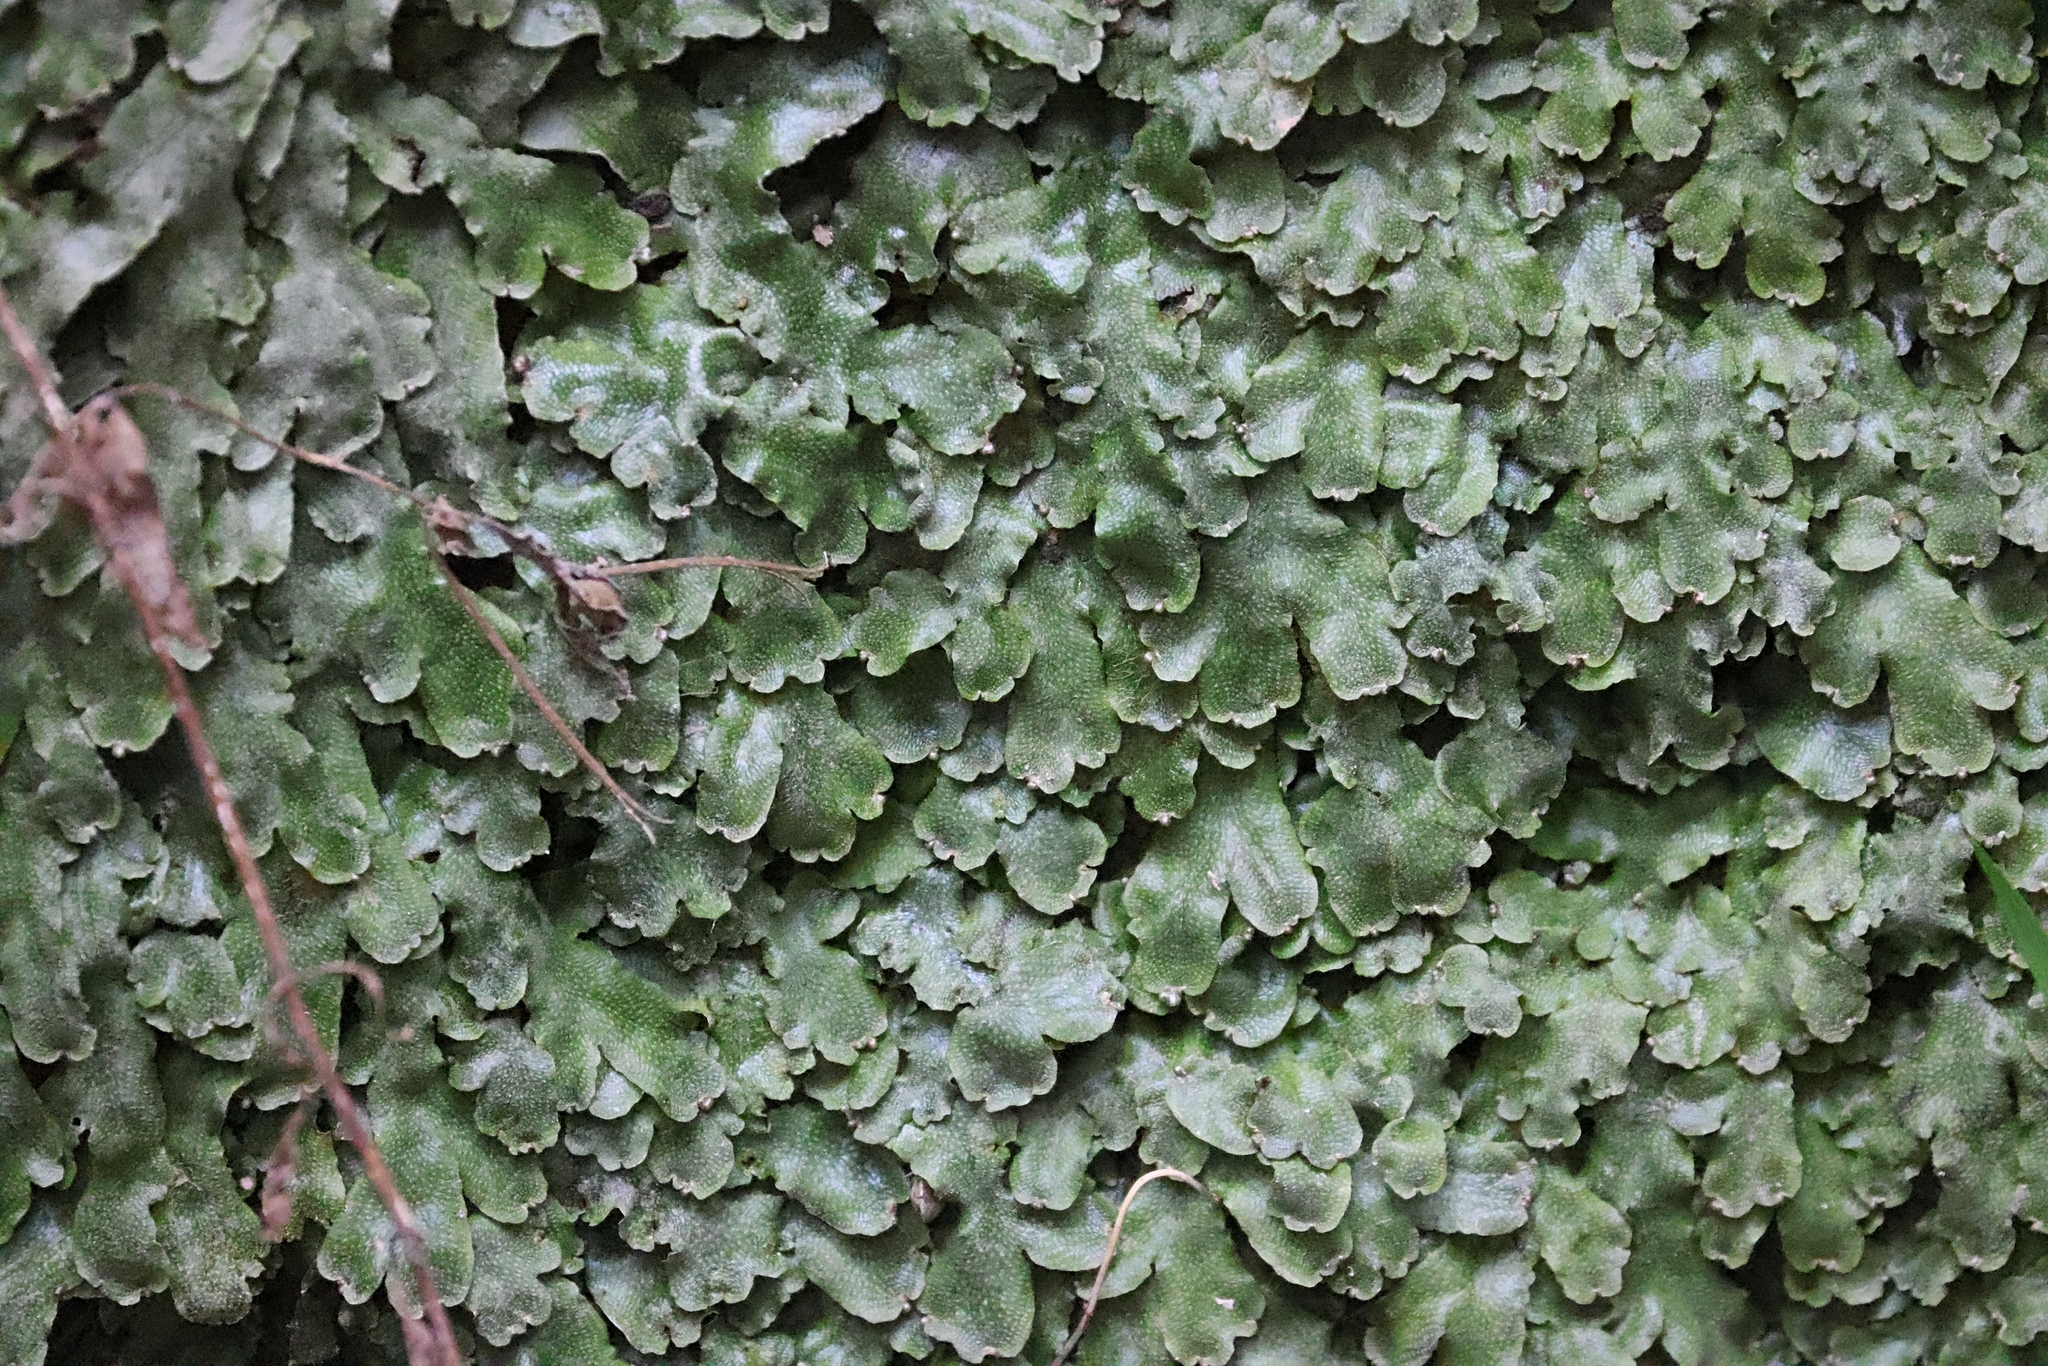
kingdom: Plantae
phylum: Marchantiophyta
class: Marchantiopsida
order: Marchantiales
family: Conocephalaceae
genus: Conocephalum
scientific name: Conocephalum conicum
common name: Great scented liverwort
